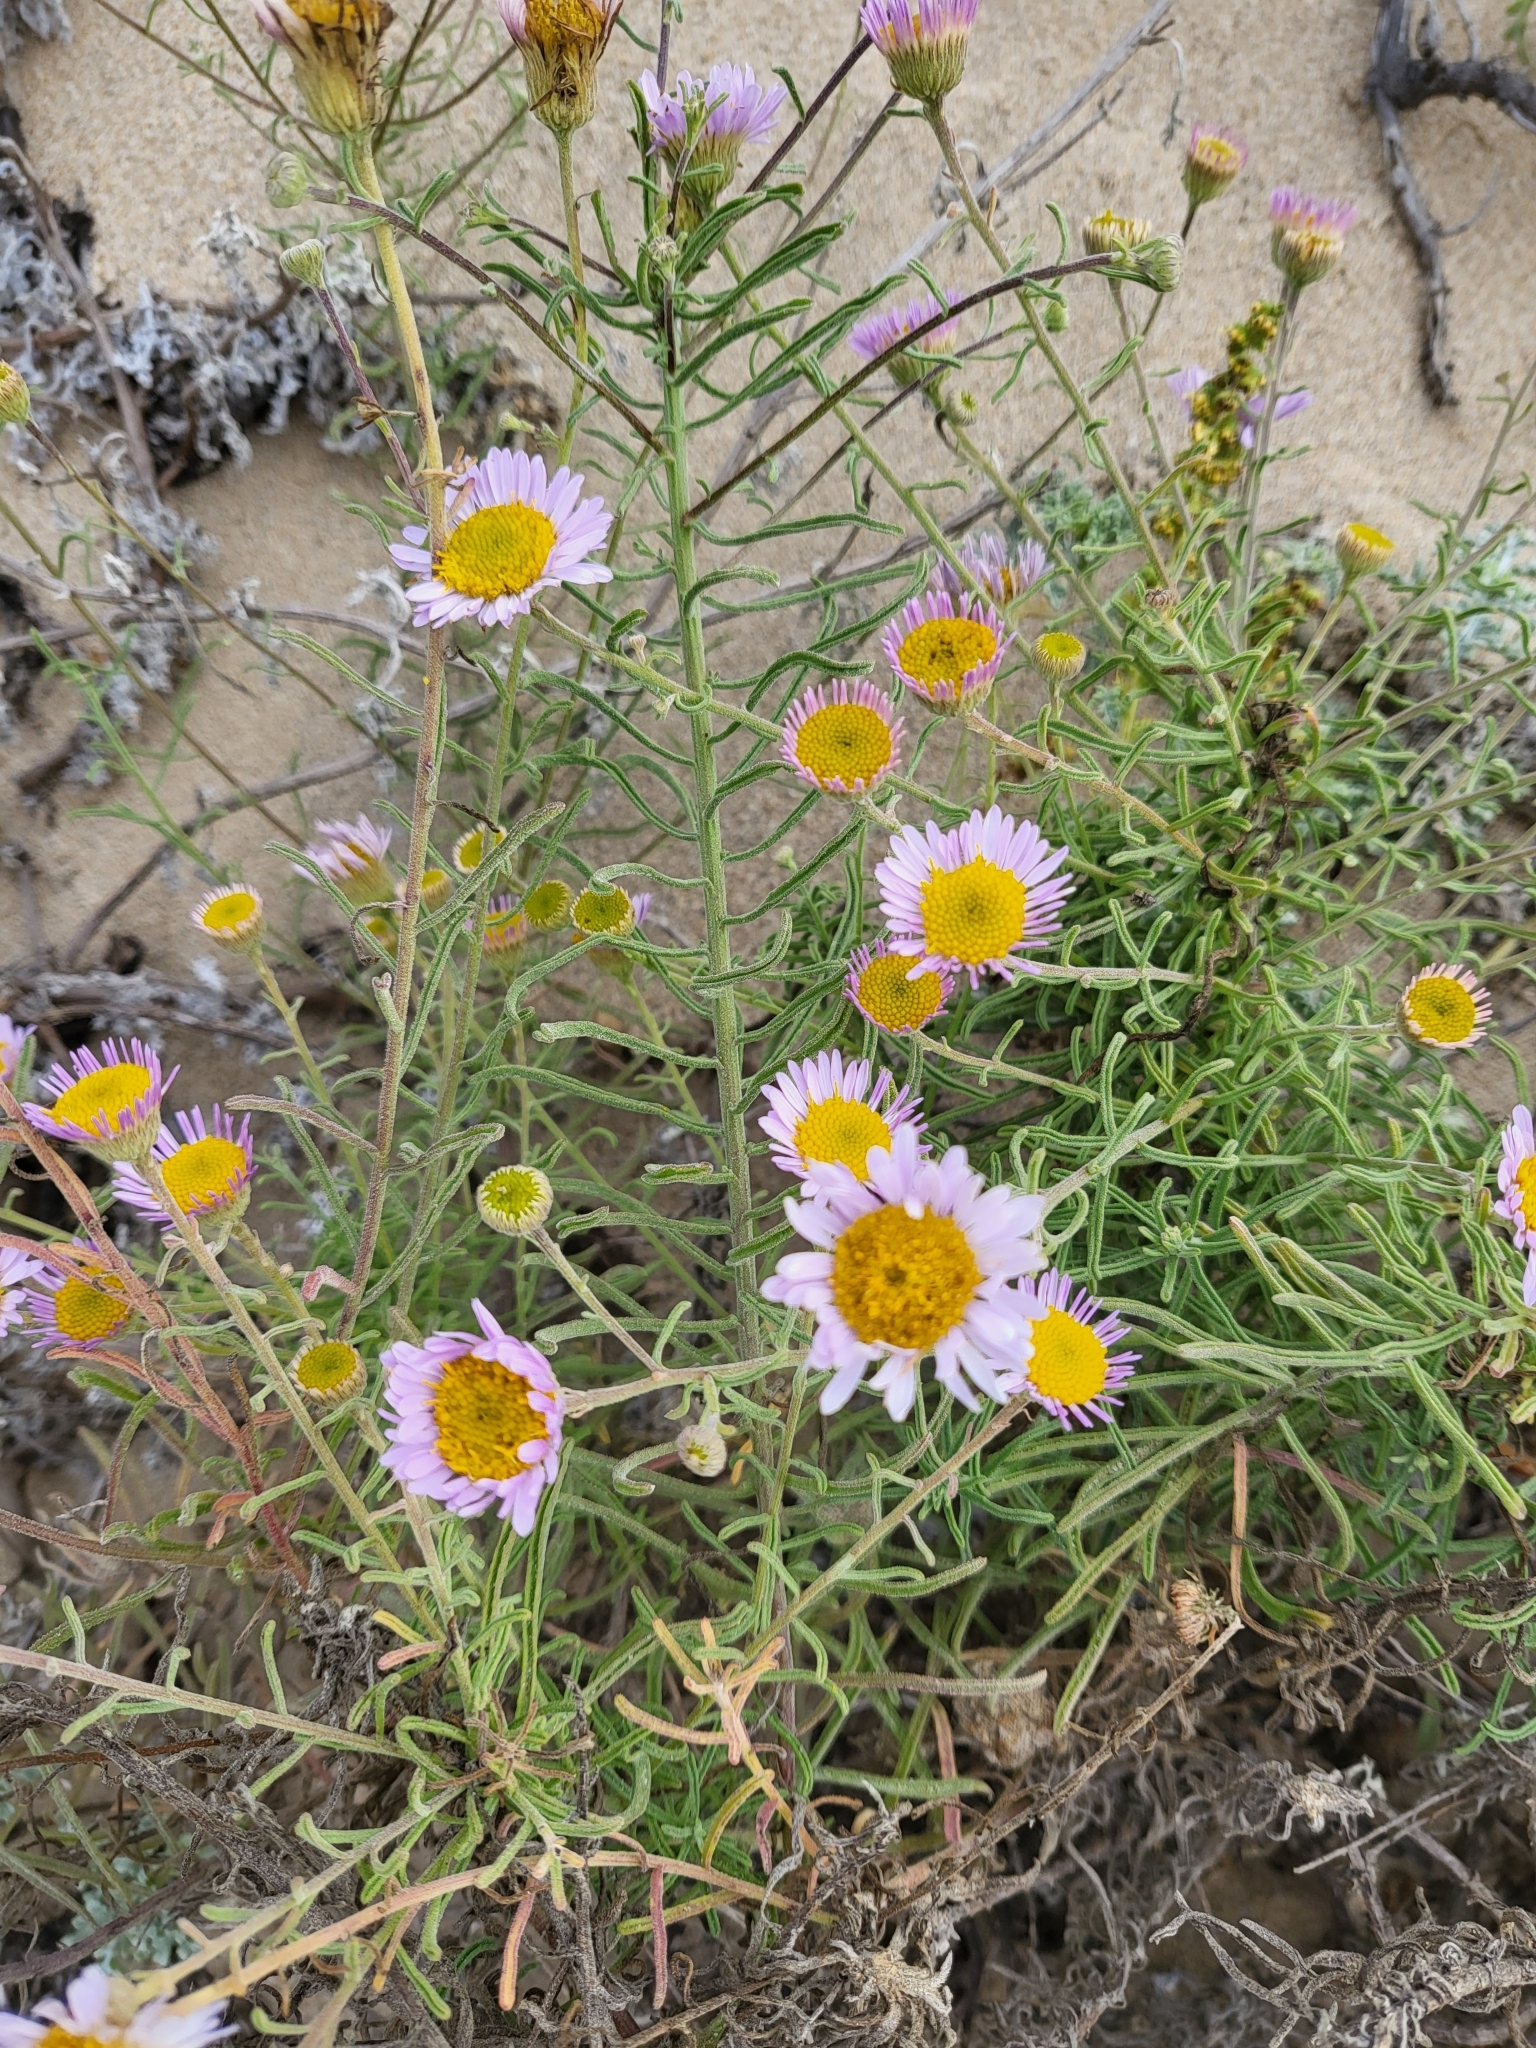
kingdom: Plantae
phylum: Tracheophyta
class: Magnoliopsida
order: Asterales
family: Asteraceae
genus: Erigeron
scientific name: Erigeron blochmaniae
